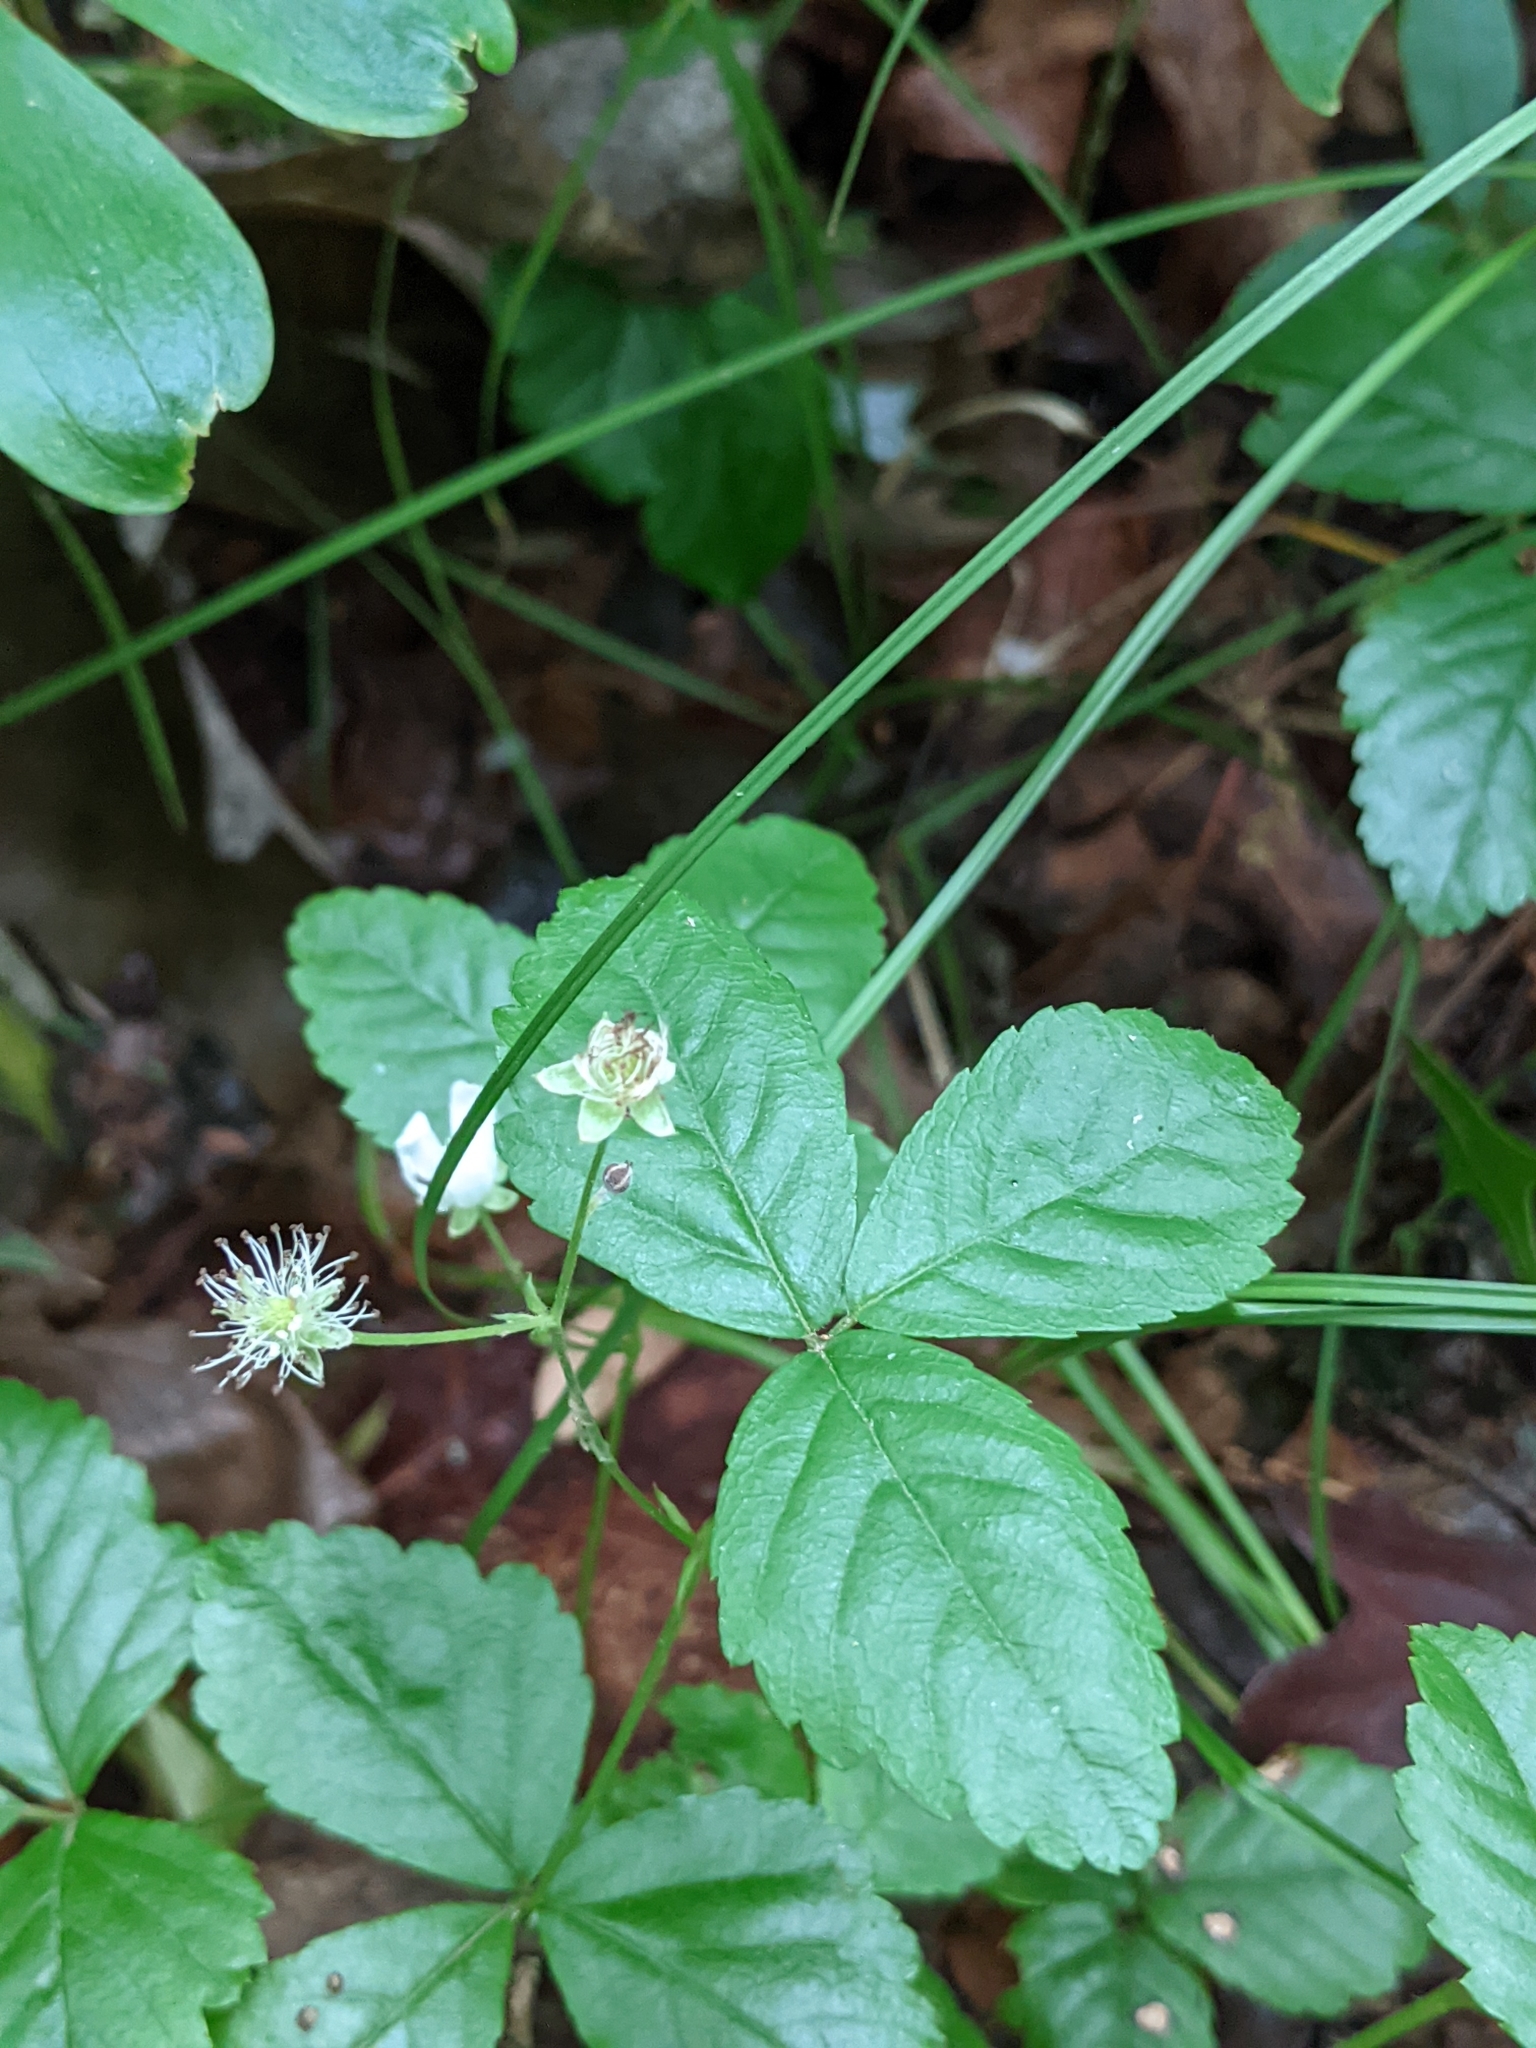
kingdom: Plantae
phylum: Tracheophyta
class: Magnoliopsida
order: Rosales
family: Rosaceae
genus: Rubus
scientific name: Rubus pubescens
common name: Dwarf raspberry
